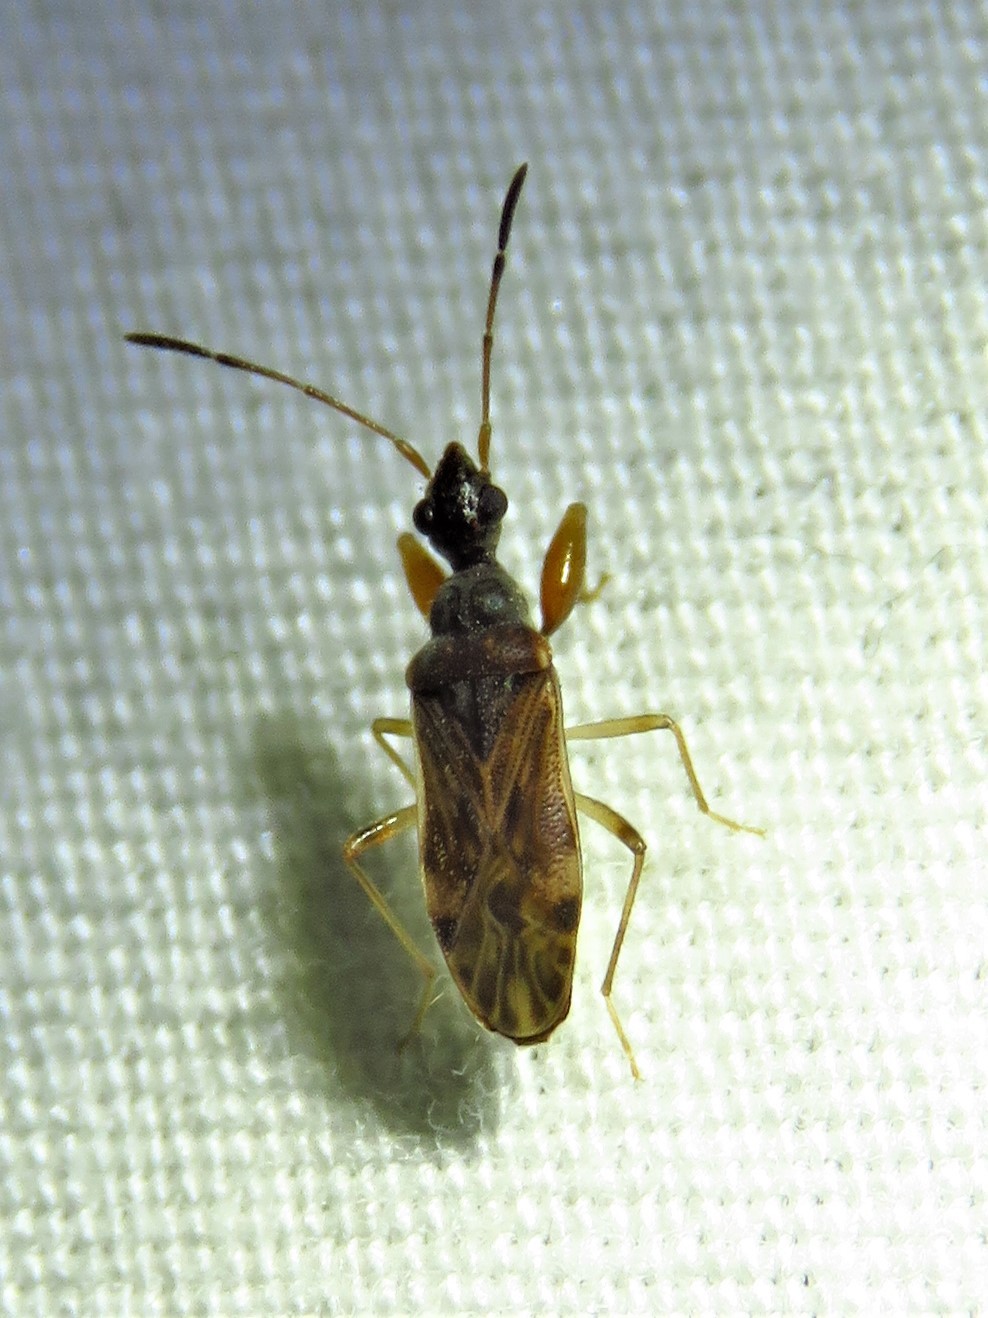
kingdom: Animalia
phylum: Arthropoda
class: Insecta
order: Hemiptera
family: Rhyparochromidae
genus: Heraeus
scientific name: Heraeus plebejus
